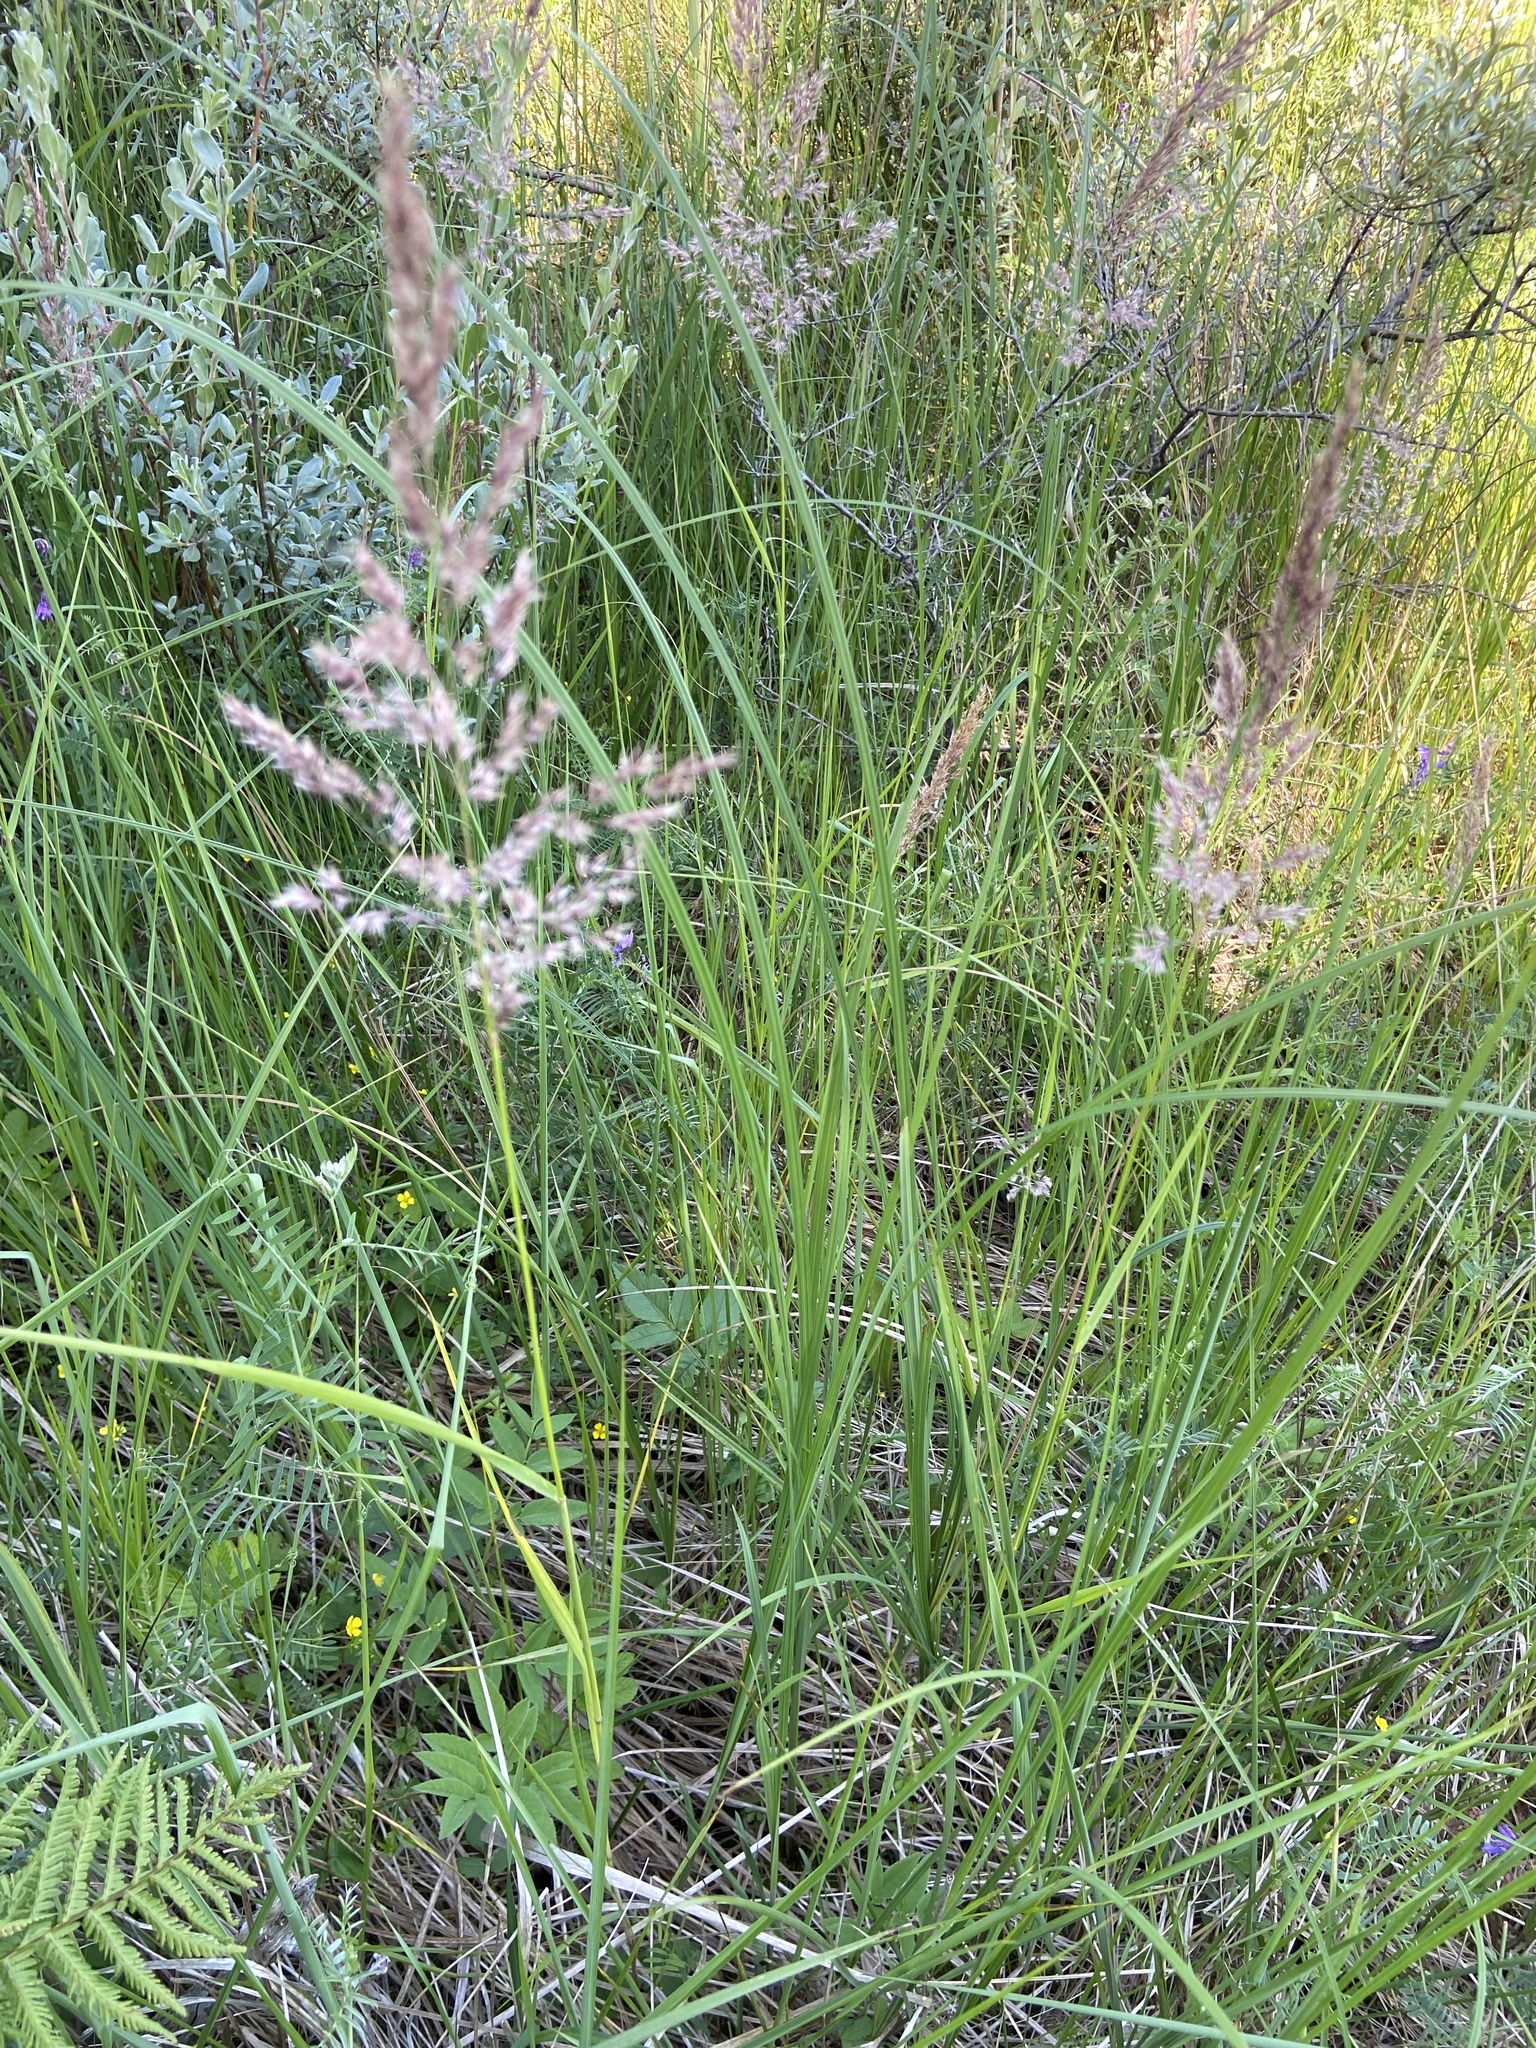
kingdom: Plantae
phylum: Tracheophyta
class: Liliopsida
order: Poales
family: Poaceae
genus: Phragmites
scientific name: Phragmites australis
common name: Common reed
